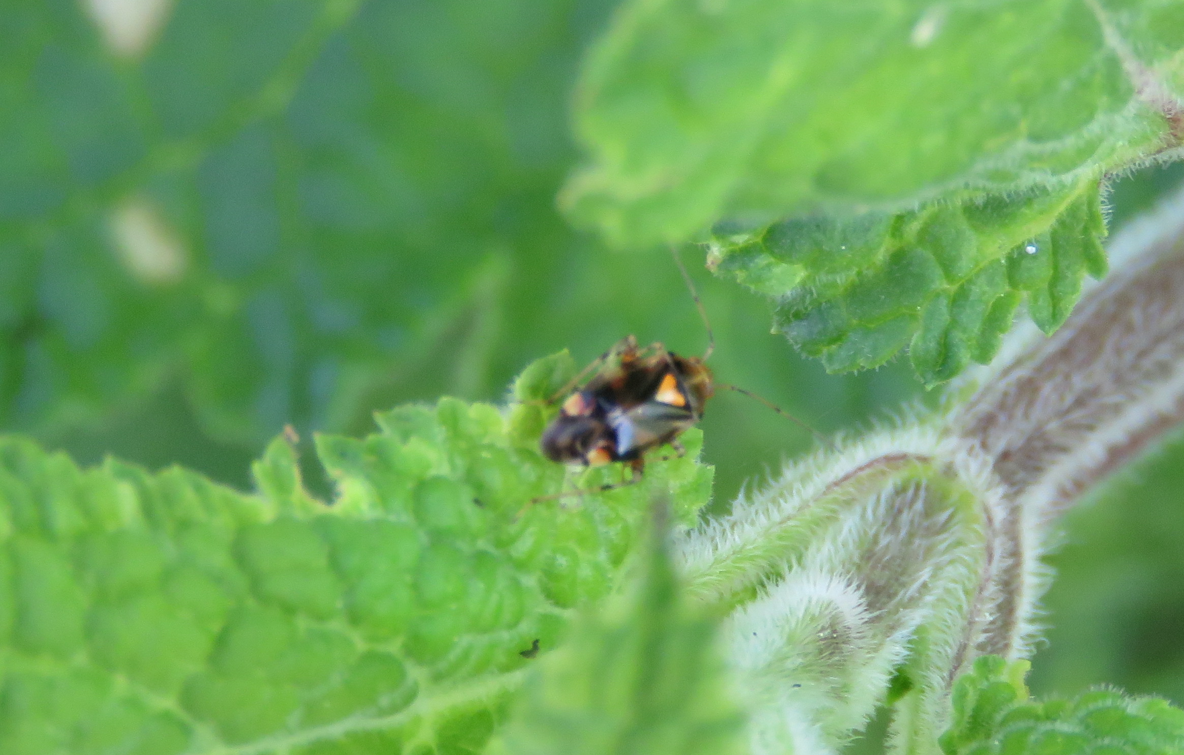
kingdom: Animalia
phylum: Arthropoda
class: Insecta
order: Hemiptera
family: Miridae
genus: Liocoris
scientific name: Liocoris tripustulatus
